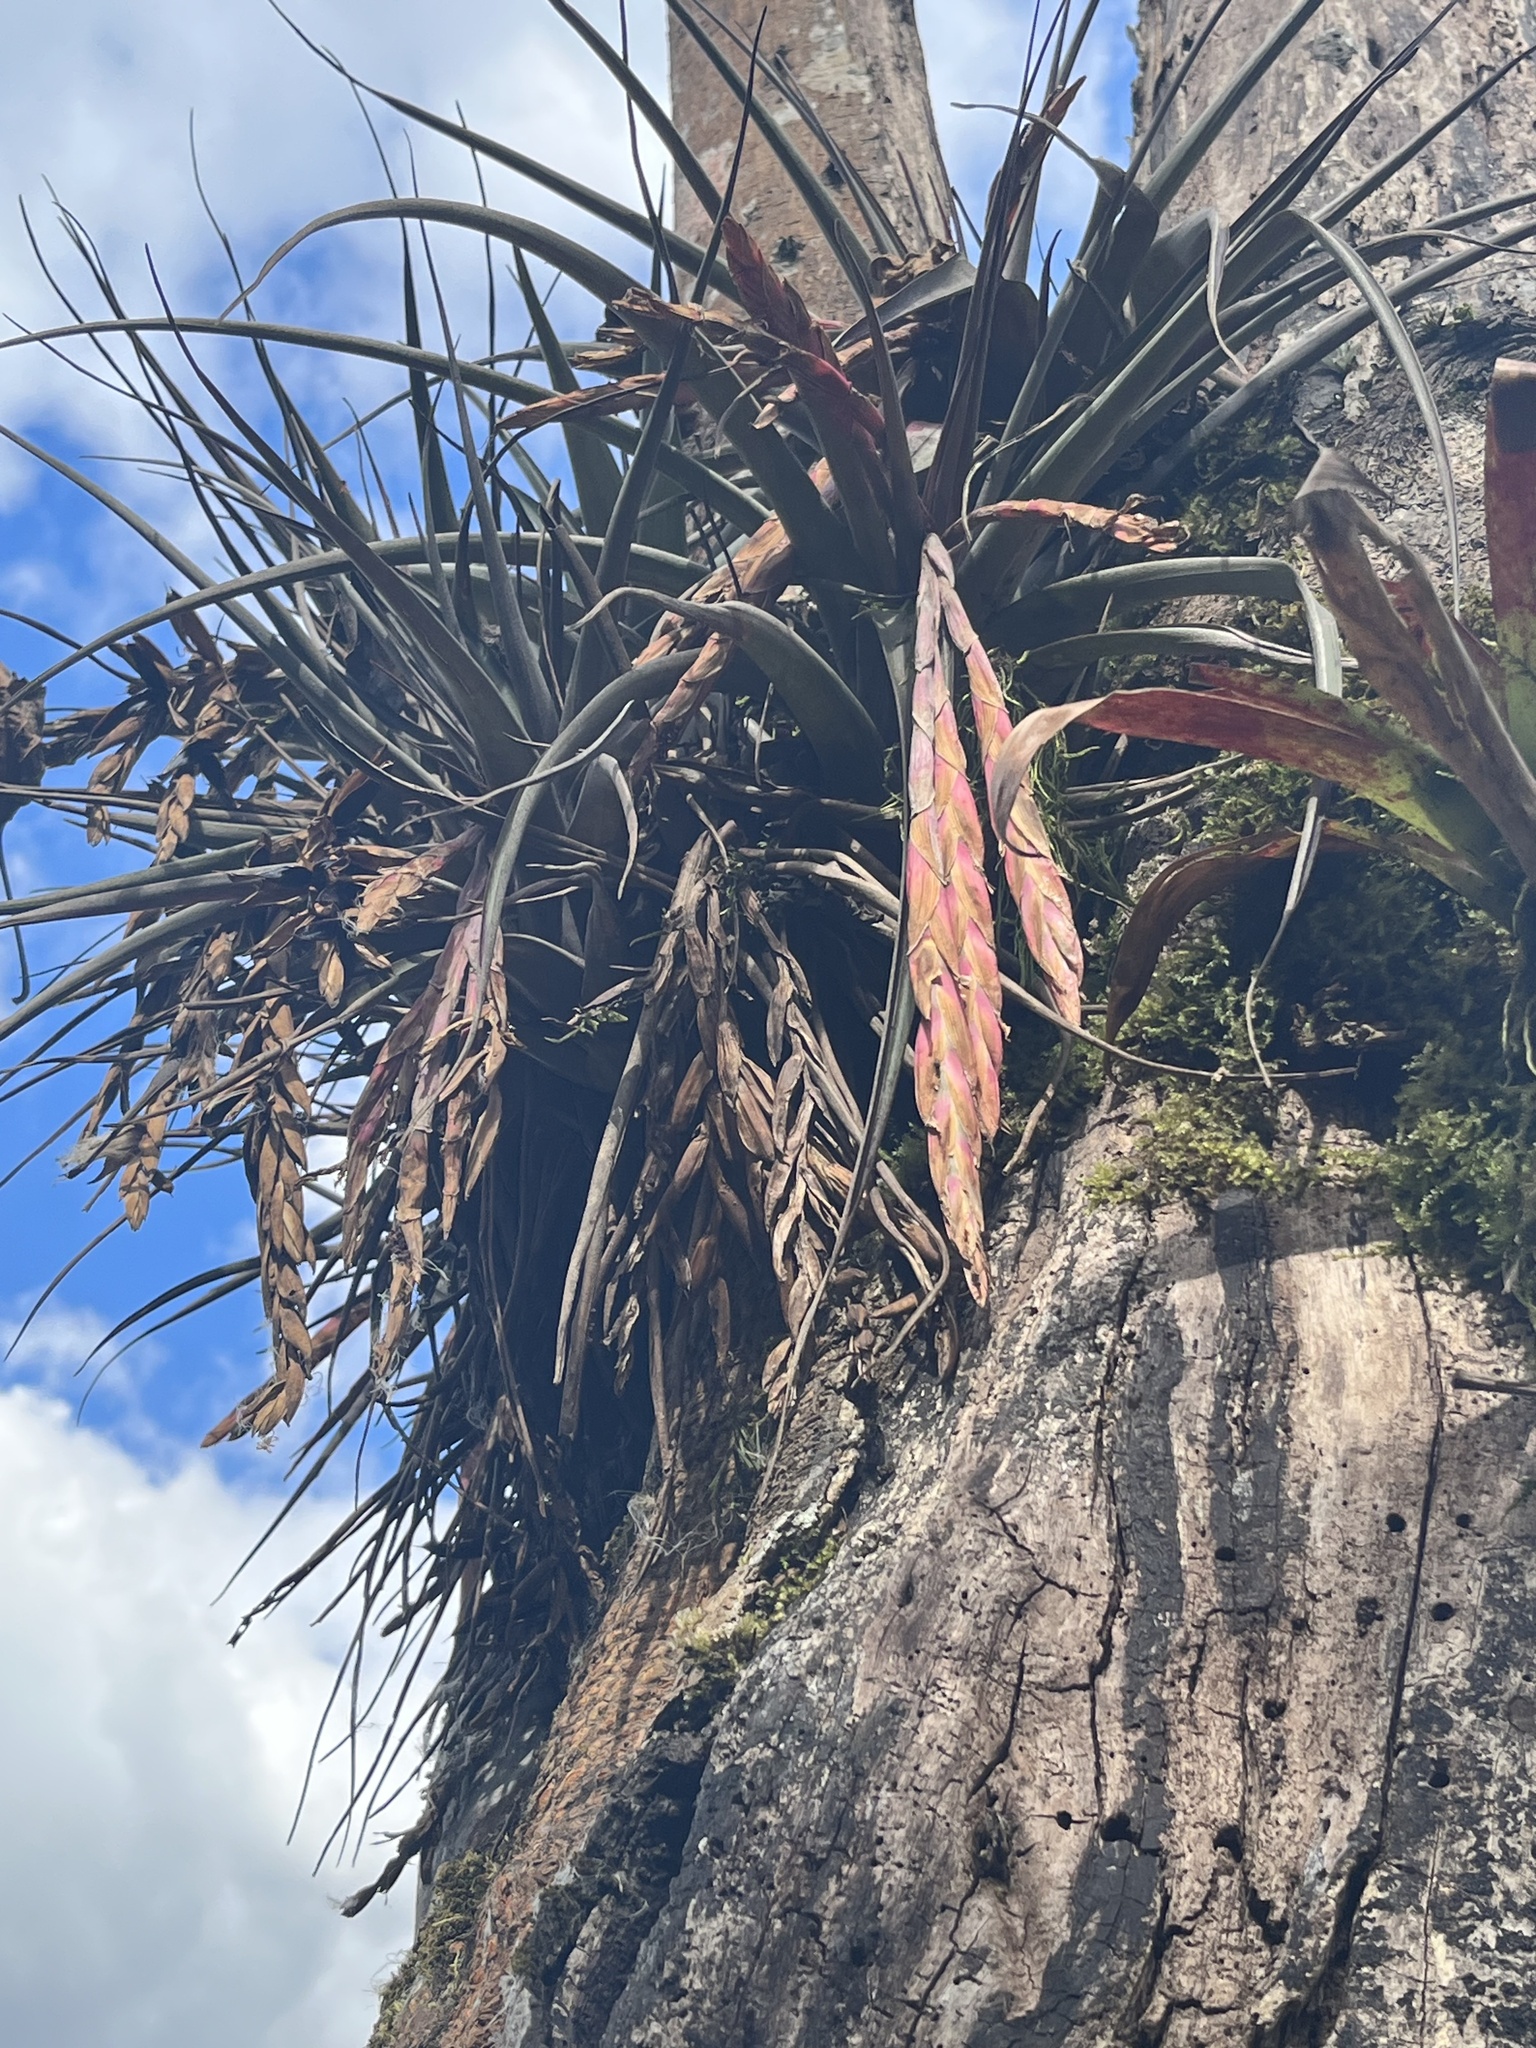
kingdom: Plantae
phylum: Tracheophyta
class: Liliopsida
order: Poales
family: Bromeliaceae
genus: Vriesea
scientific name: Vriesea pereziana
